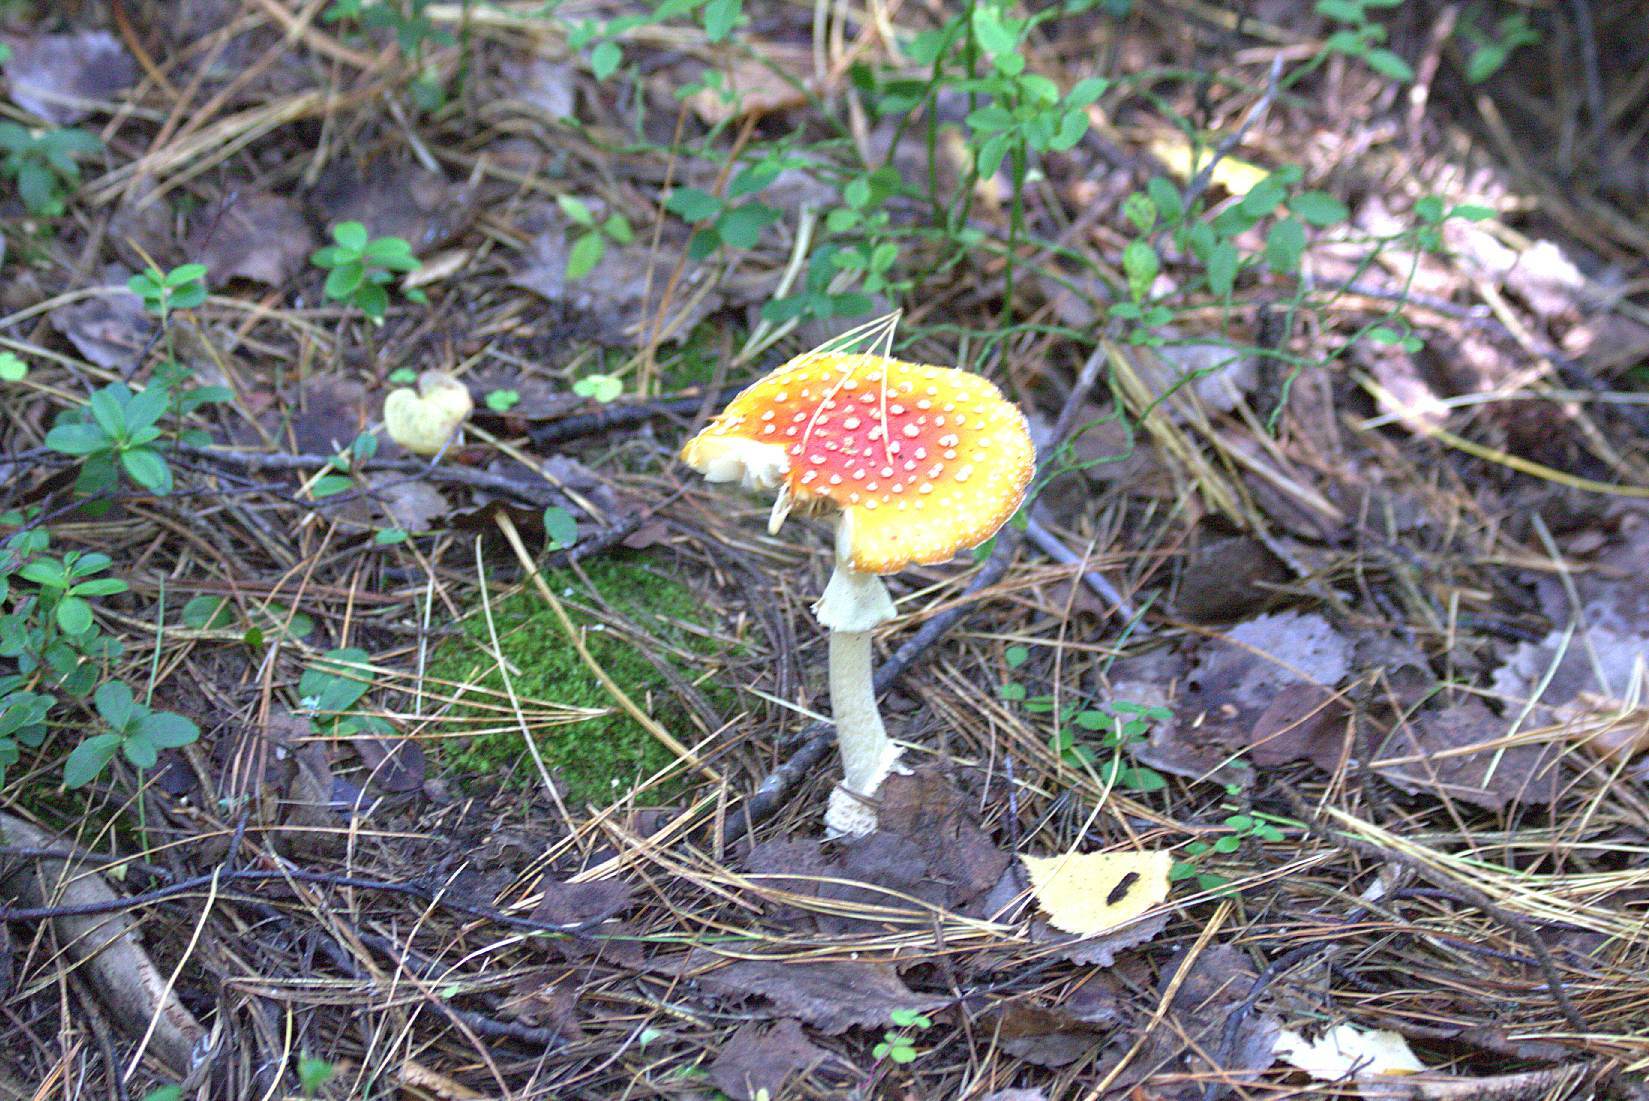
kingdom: Fungi
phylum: Basidiomycota
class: Agaricomycetes
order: Agaricales
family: Amanitaceae
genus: Amanita
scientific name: Amanita muscaria
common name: Fly agaric
